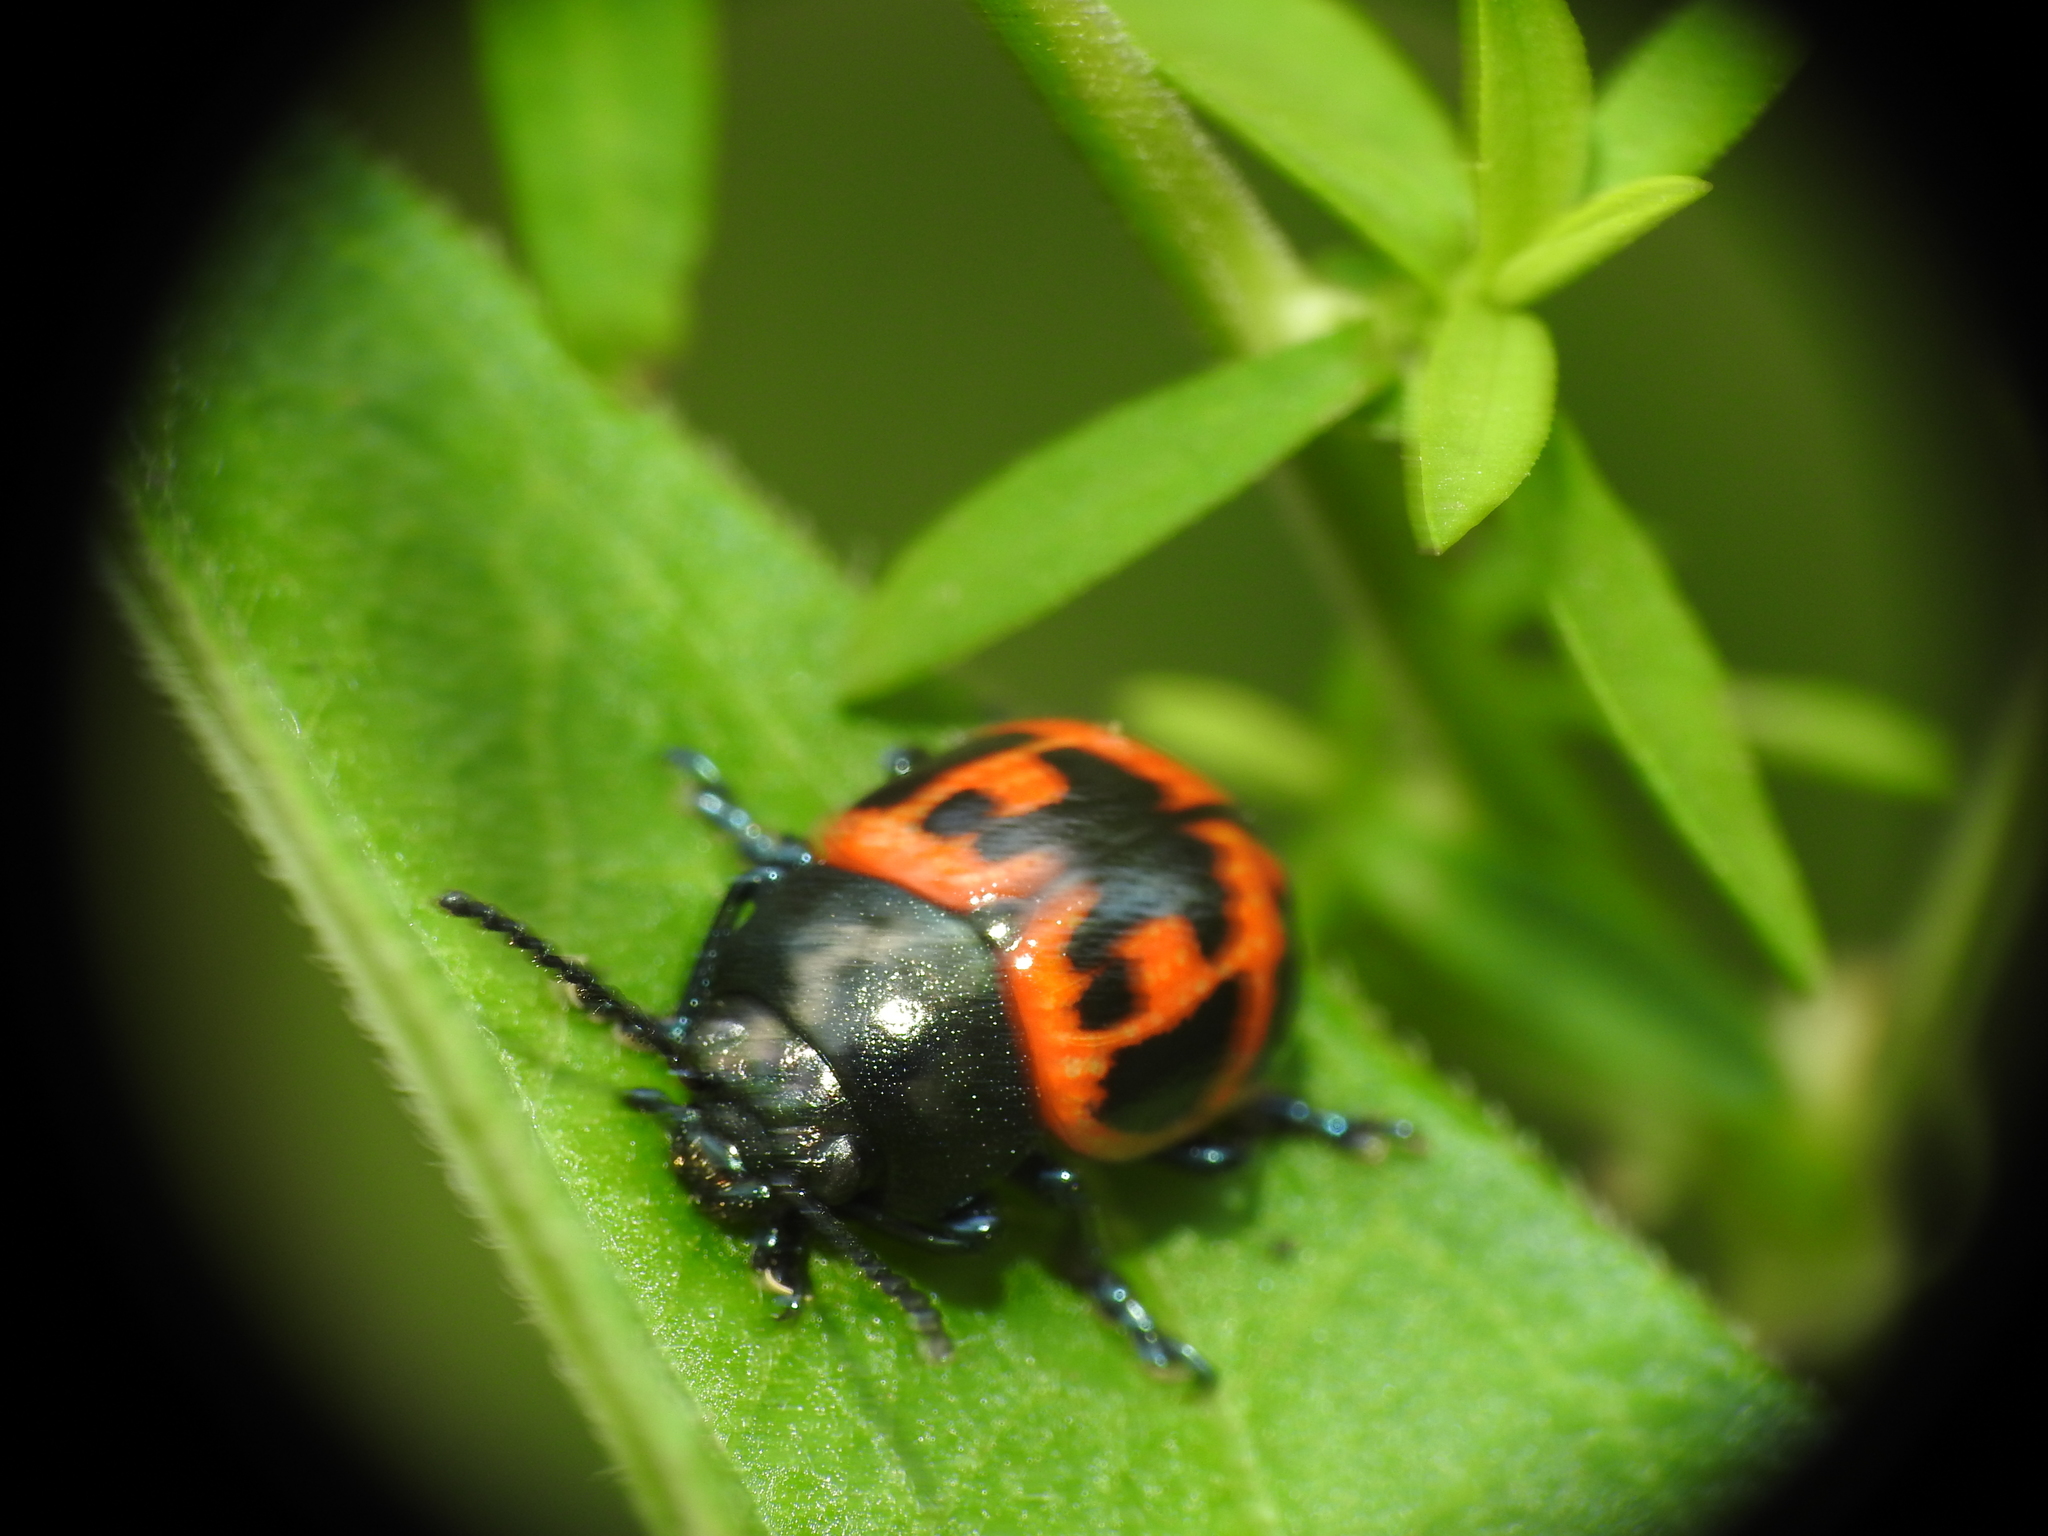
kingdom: Animalia
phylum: Arthropoda
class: Insecta
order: Coleoptera
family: Chrysomelidae
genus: Labidomera
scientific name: Labidomera clivicollis
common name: Swamp milkweed leaf beetle
